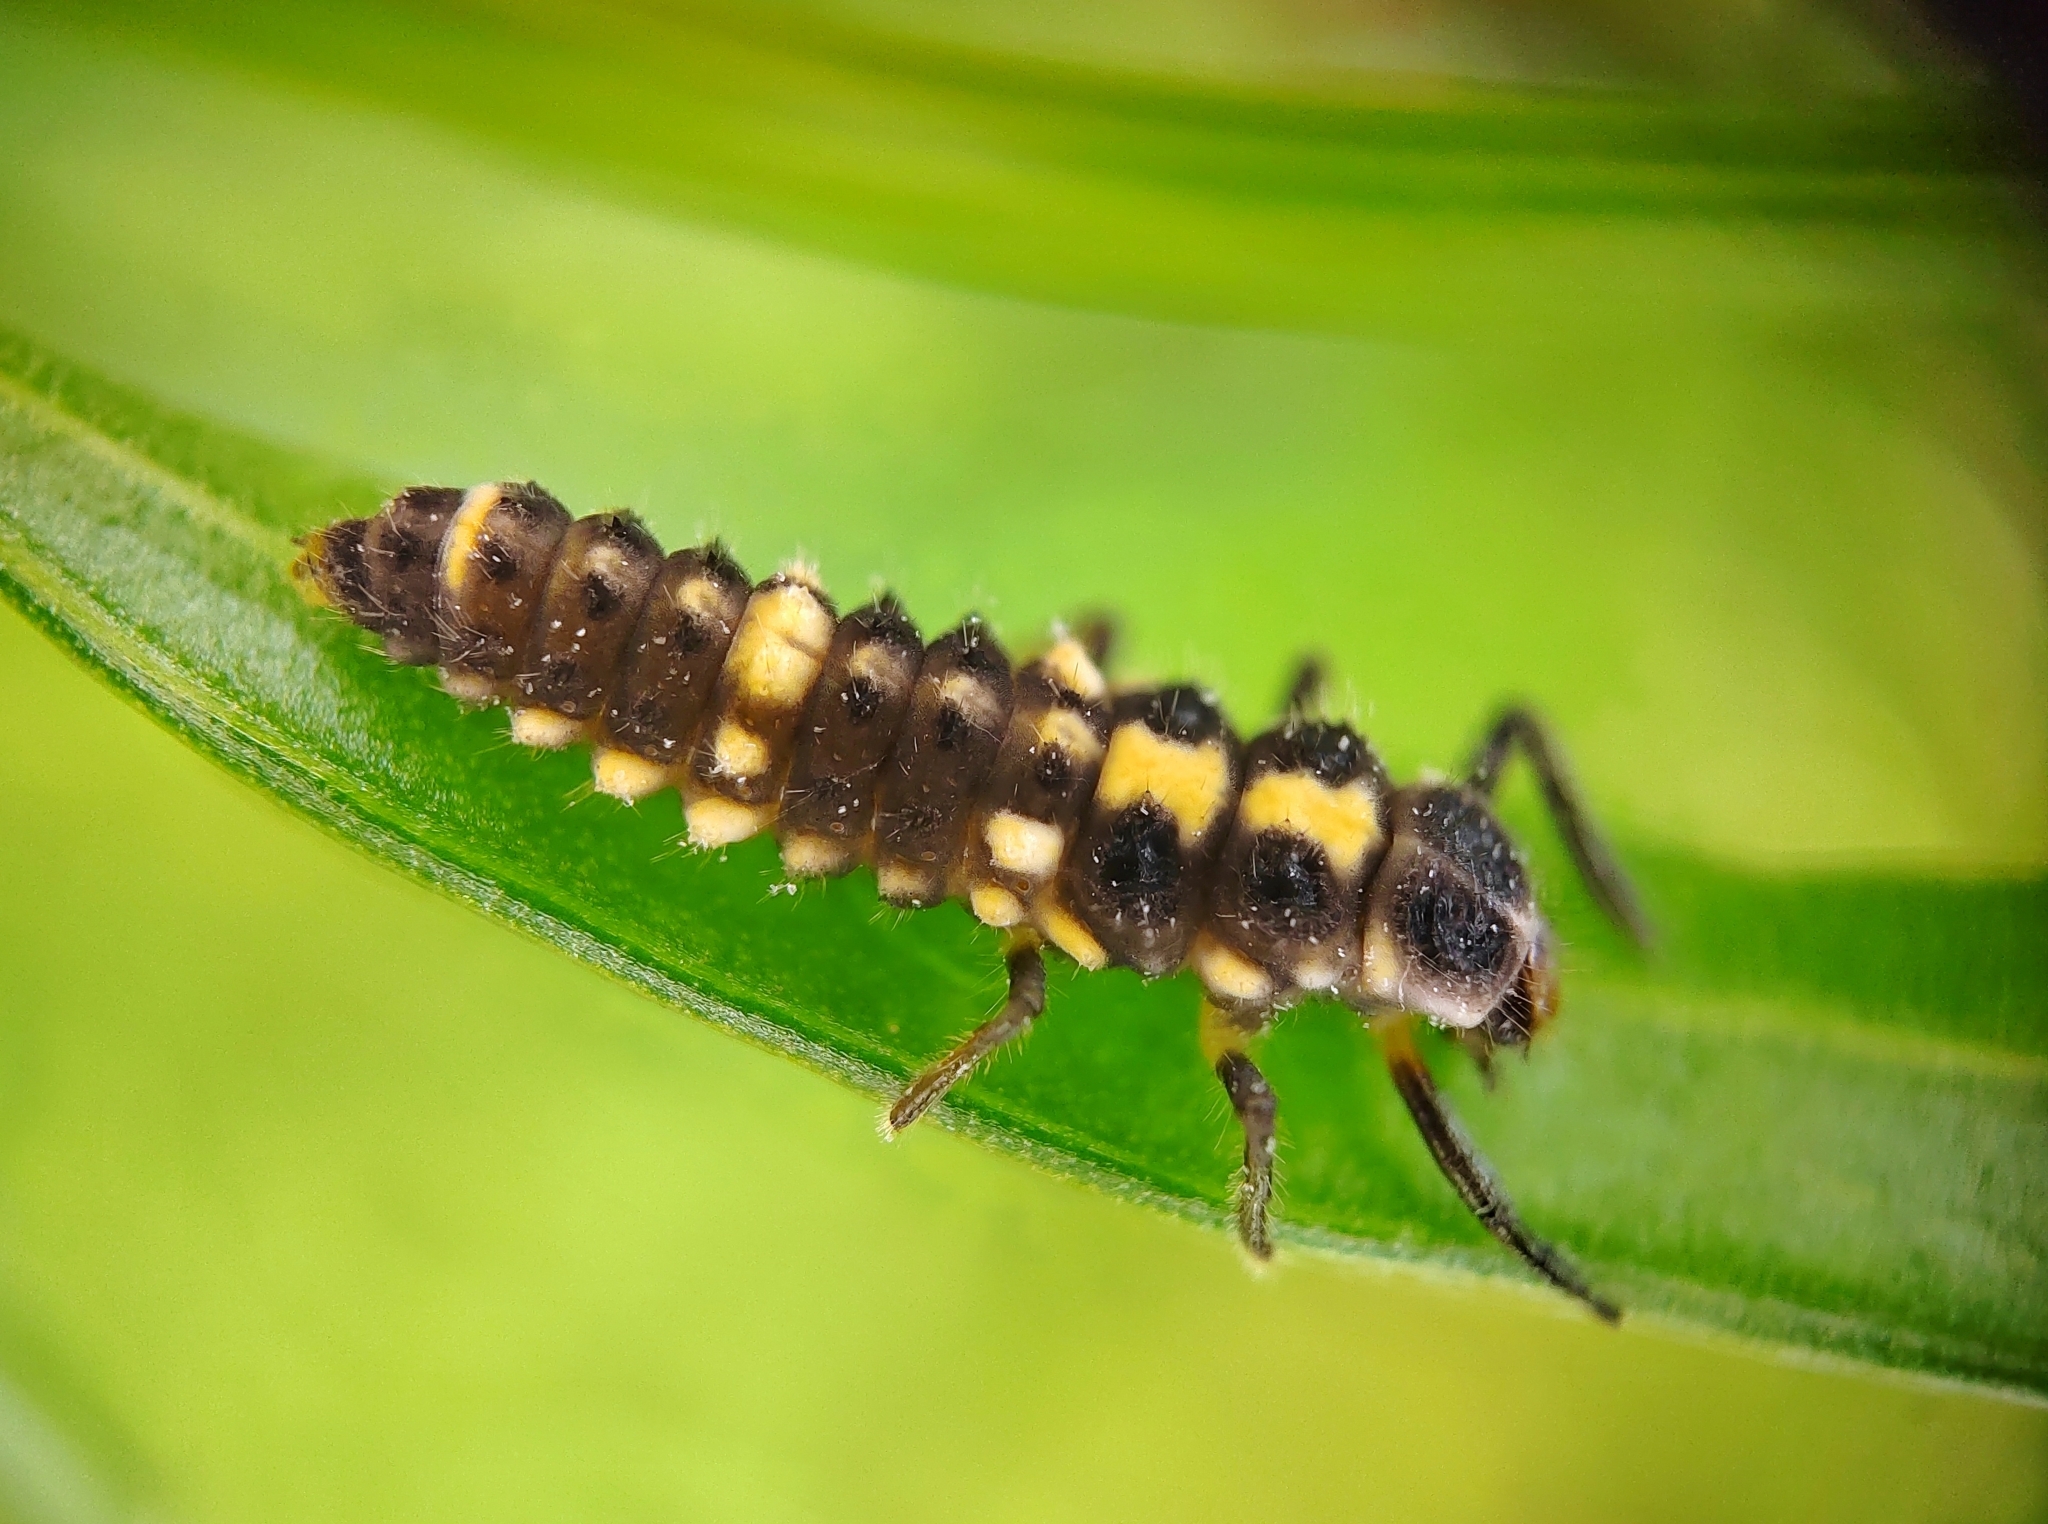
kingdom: Animalia
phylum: Arthropoda
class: Insecta
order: Coleoptera
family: Coccinellidae
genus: Propylaea
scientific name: Propylaea quatuordecimpunctata
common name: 14-spotted ladybird beetle
